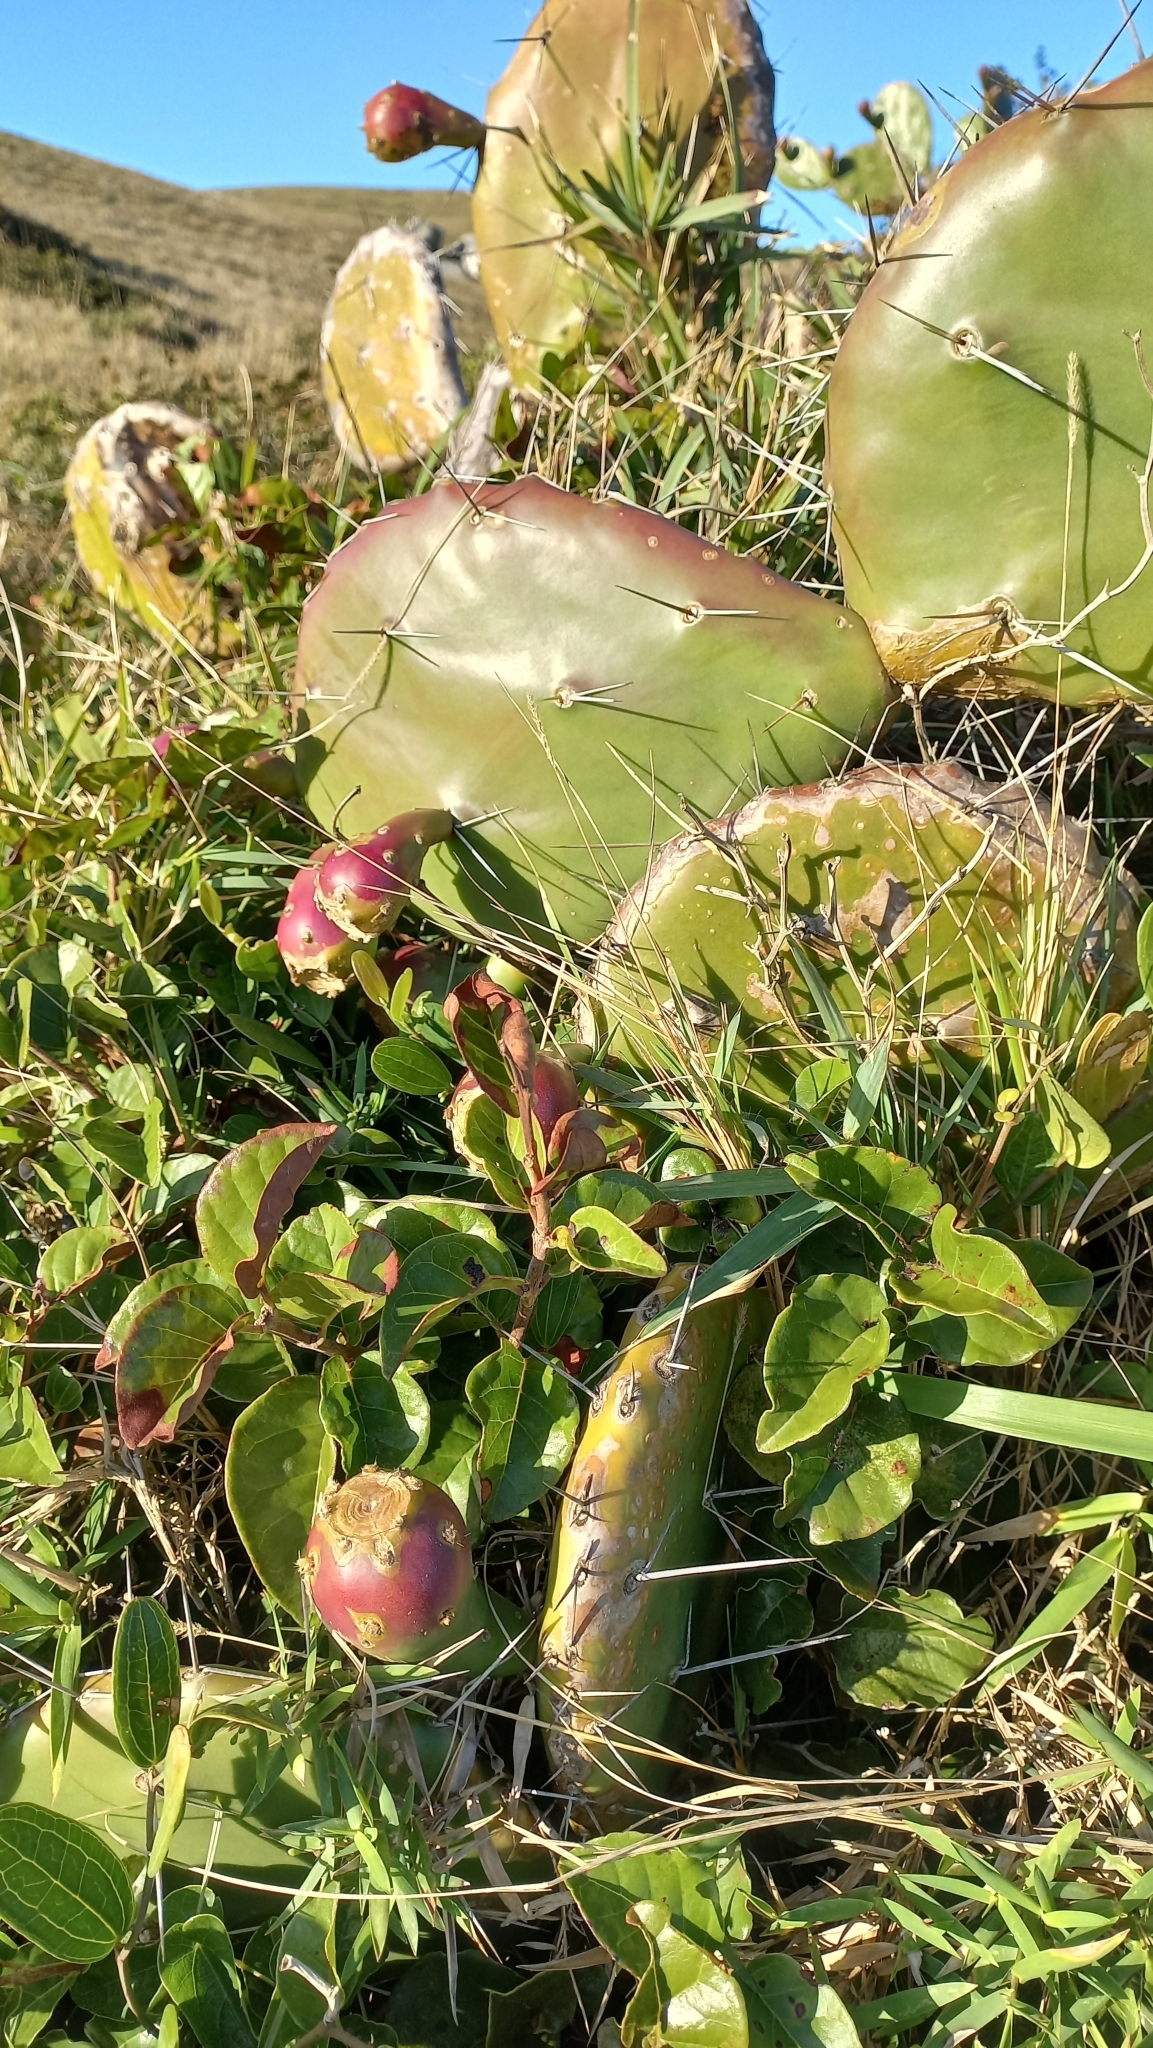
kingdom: Plantae
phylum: Tracheophyta
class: Magnoliopsida
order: Caryophyllales
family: Cactaceae
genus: Opuntia
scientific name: Opuntia monacantha
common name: Common pricklypear
